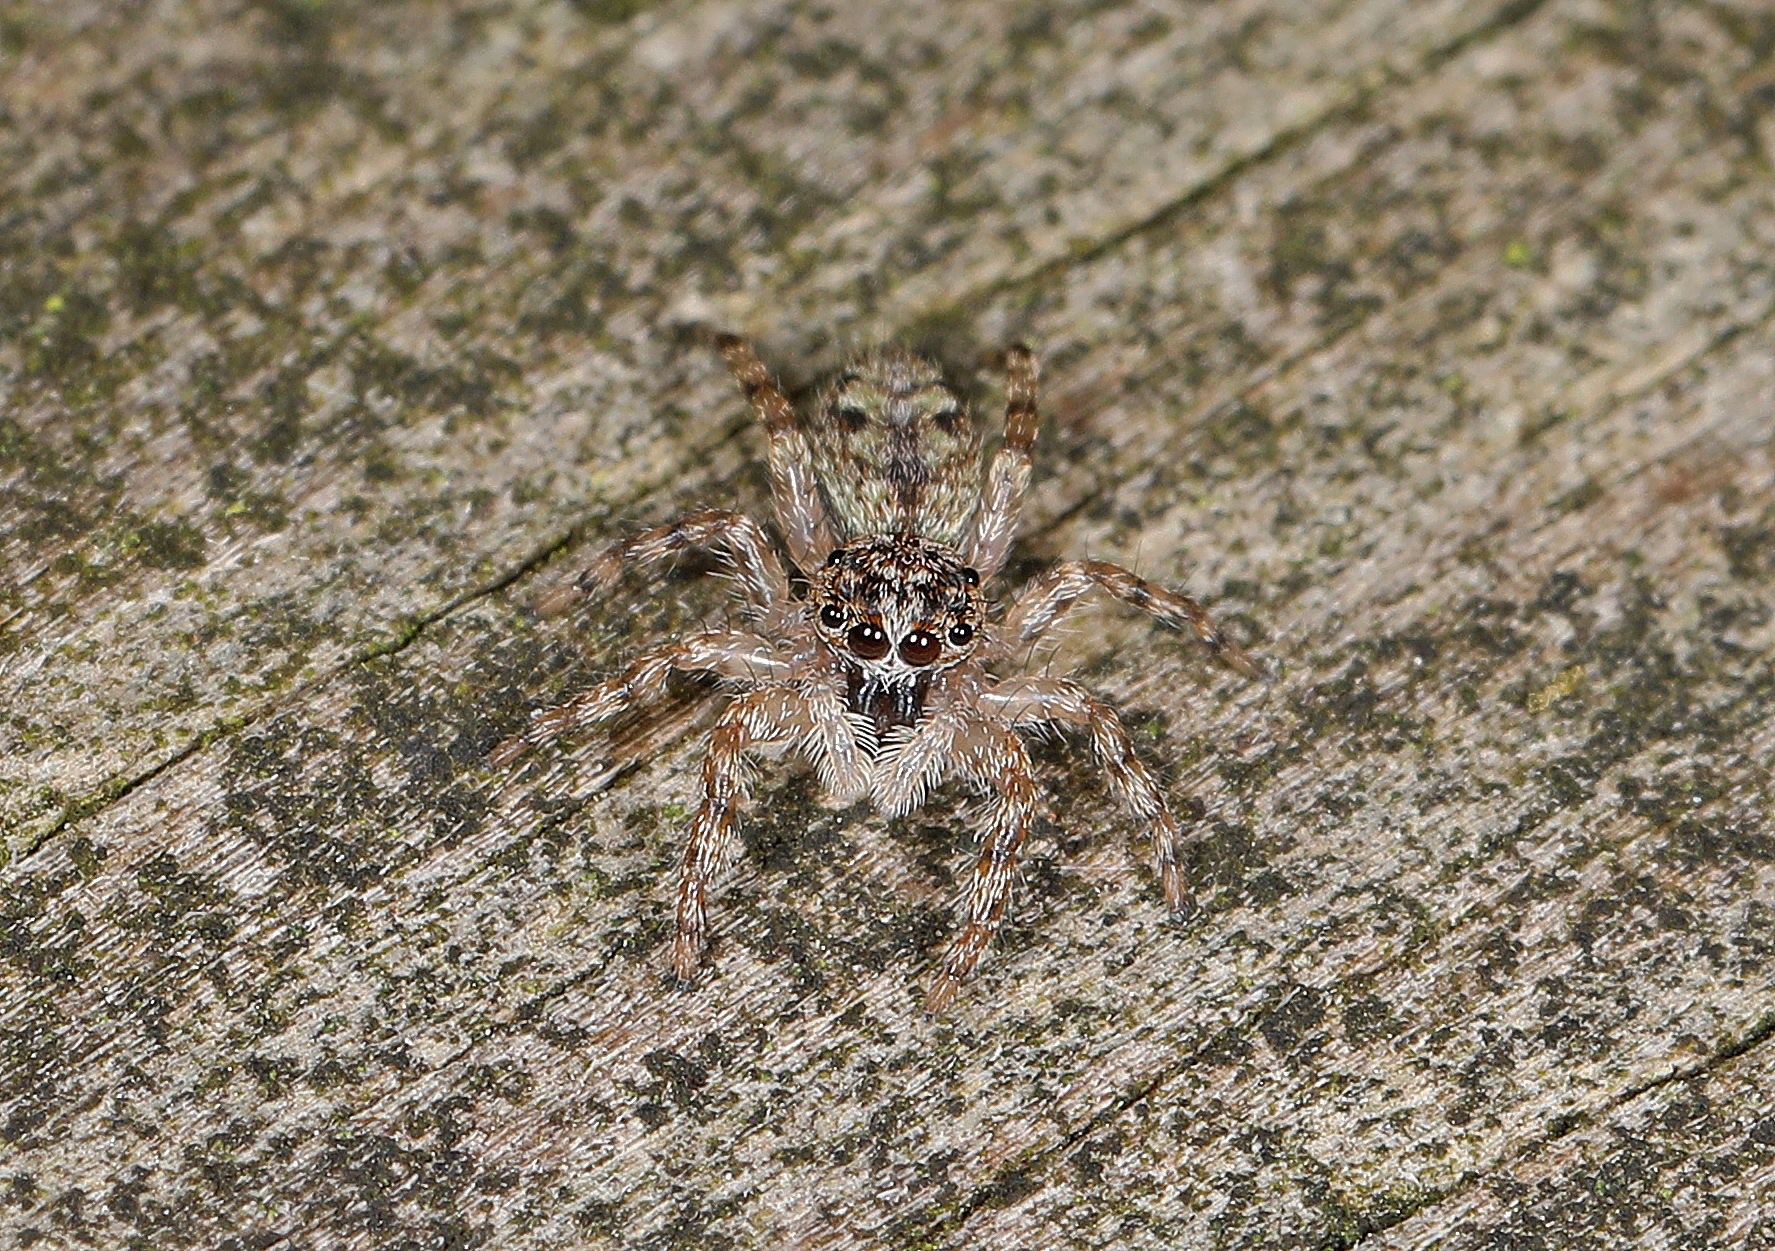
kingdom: Animalia
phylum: Arthropoda
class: Arachnida
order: Araneae
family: Salticidae
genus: Platycryptus
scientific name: Platycryptus undatus
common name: Tan jumping spider
